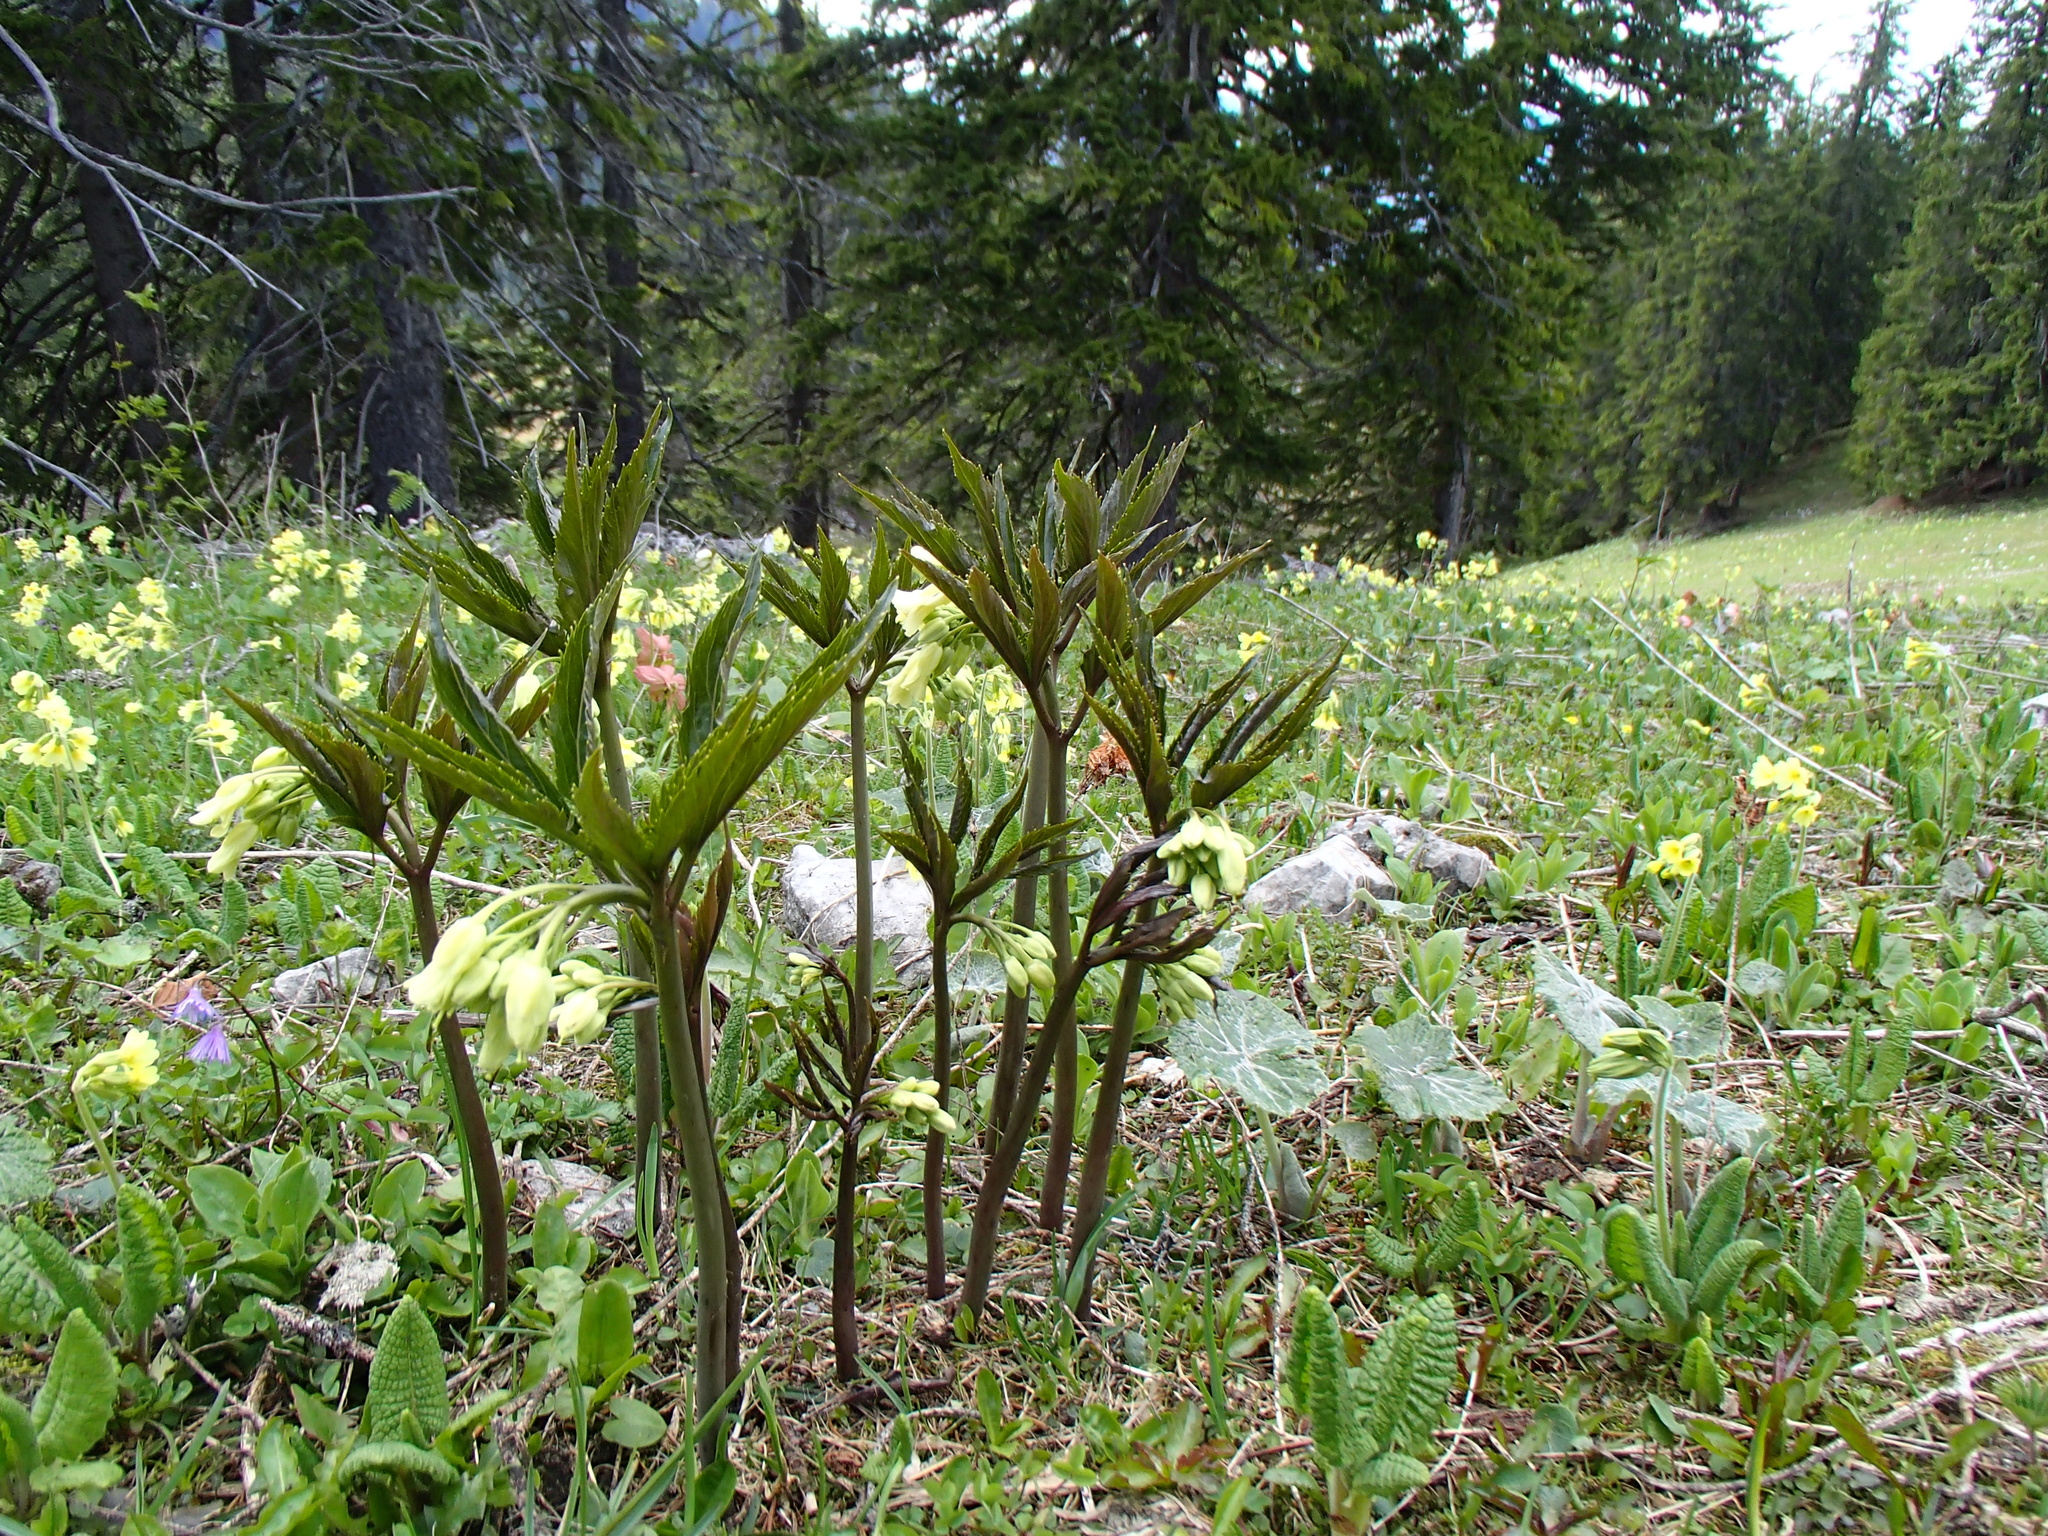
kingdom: Plantae
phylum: Tracheophyta
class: Magnoliopsida
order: Brassicales
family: Brassicaceae
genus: Cardamine
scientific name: Cardamine enneaphyllos
